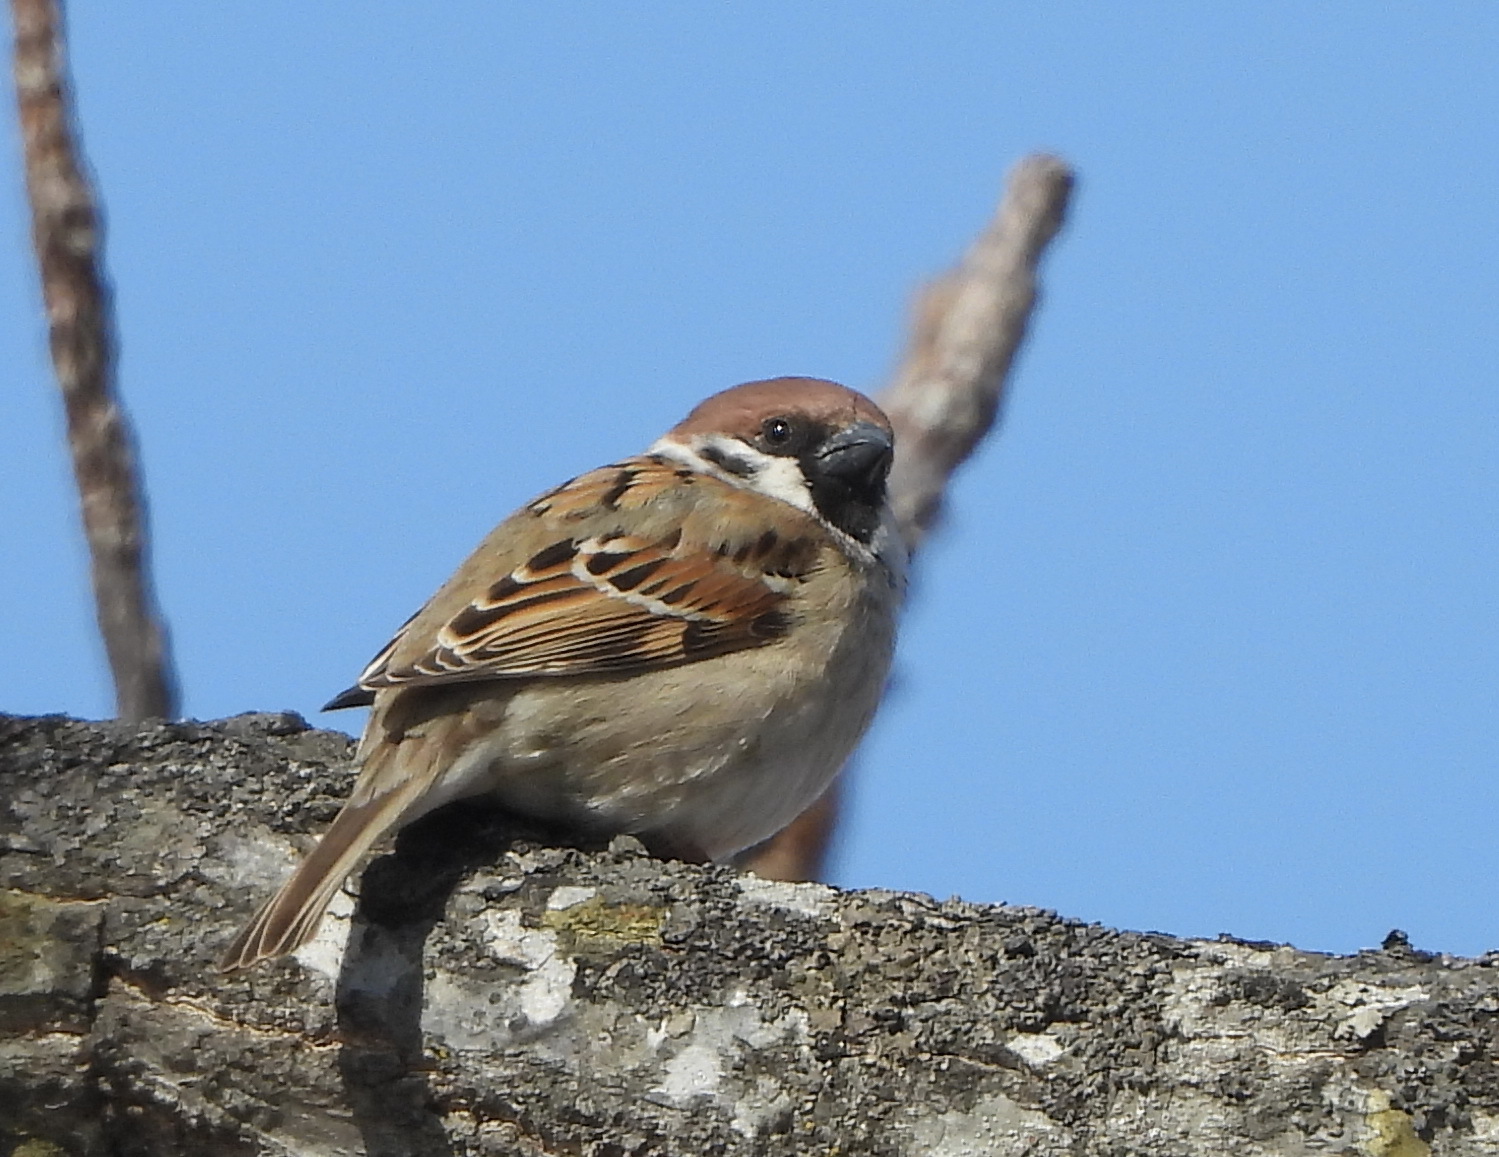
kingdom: Animalia
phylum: Chordata
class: Aves
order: Passeriformes
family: Passeridae
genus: Passer
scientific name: Passer montanus
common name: Eurasian tree sparrow
